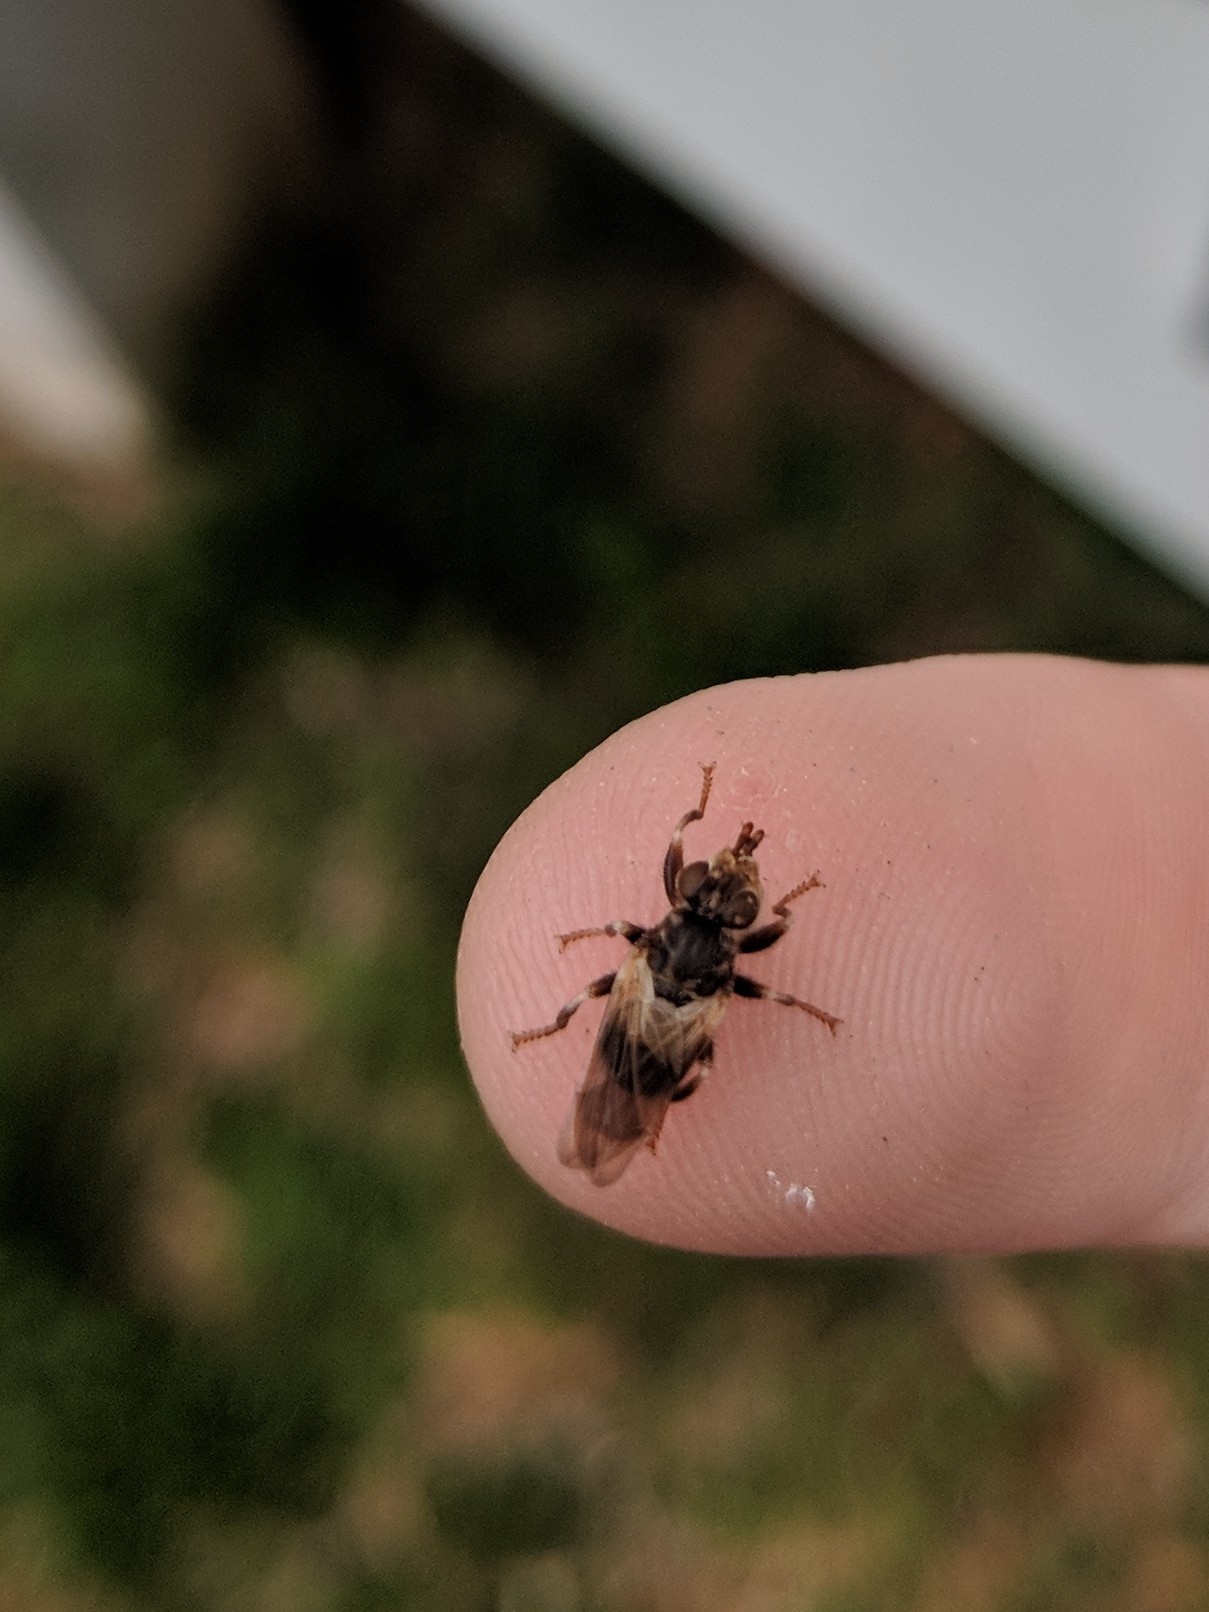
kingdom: Animalia
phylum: Arthropoda
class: Insecta
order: Diptera
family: Conopidae
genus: Myopa
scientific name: Myopa vesiculosa
